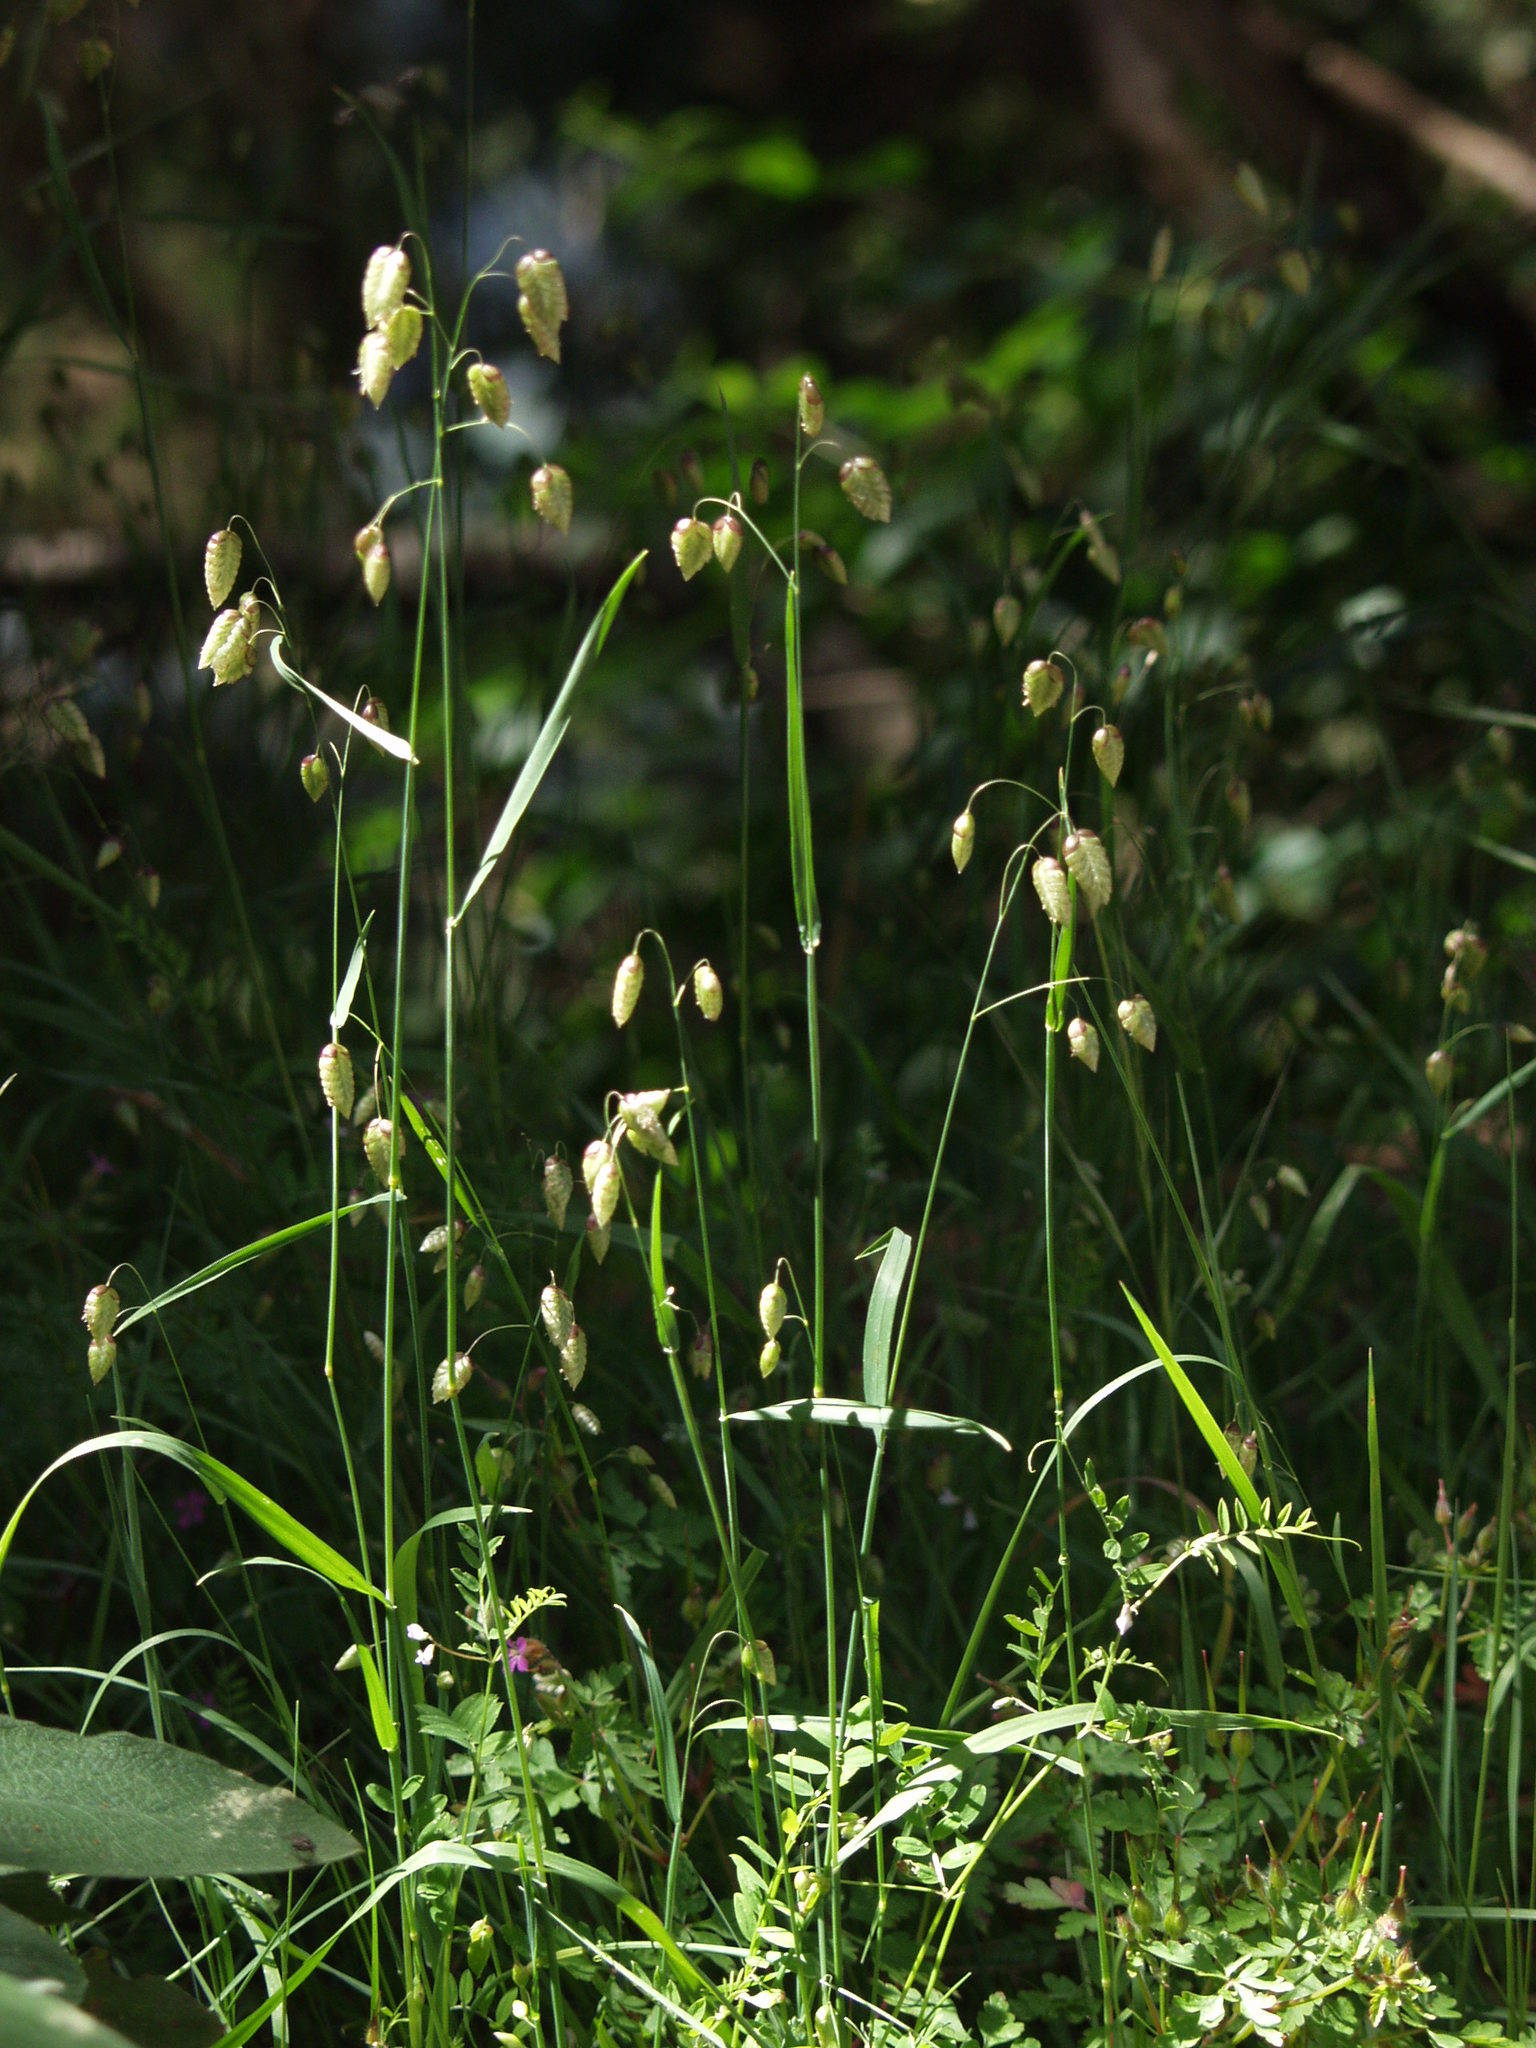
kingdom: Plantae
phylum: Tracheophyta
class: Liliopsida
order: Poales
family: Poaceae
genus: Briza
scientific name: Briza maxima
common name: Big quakinggrass
